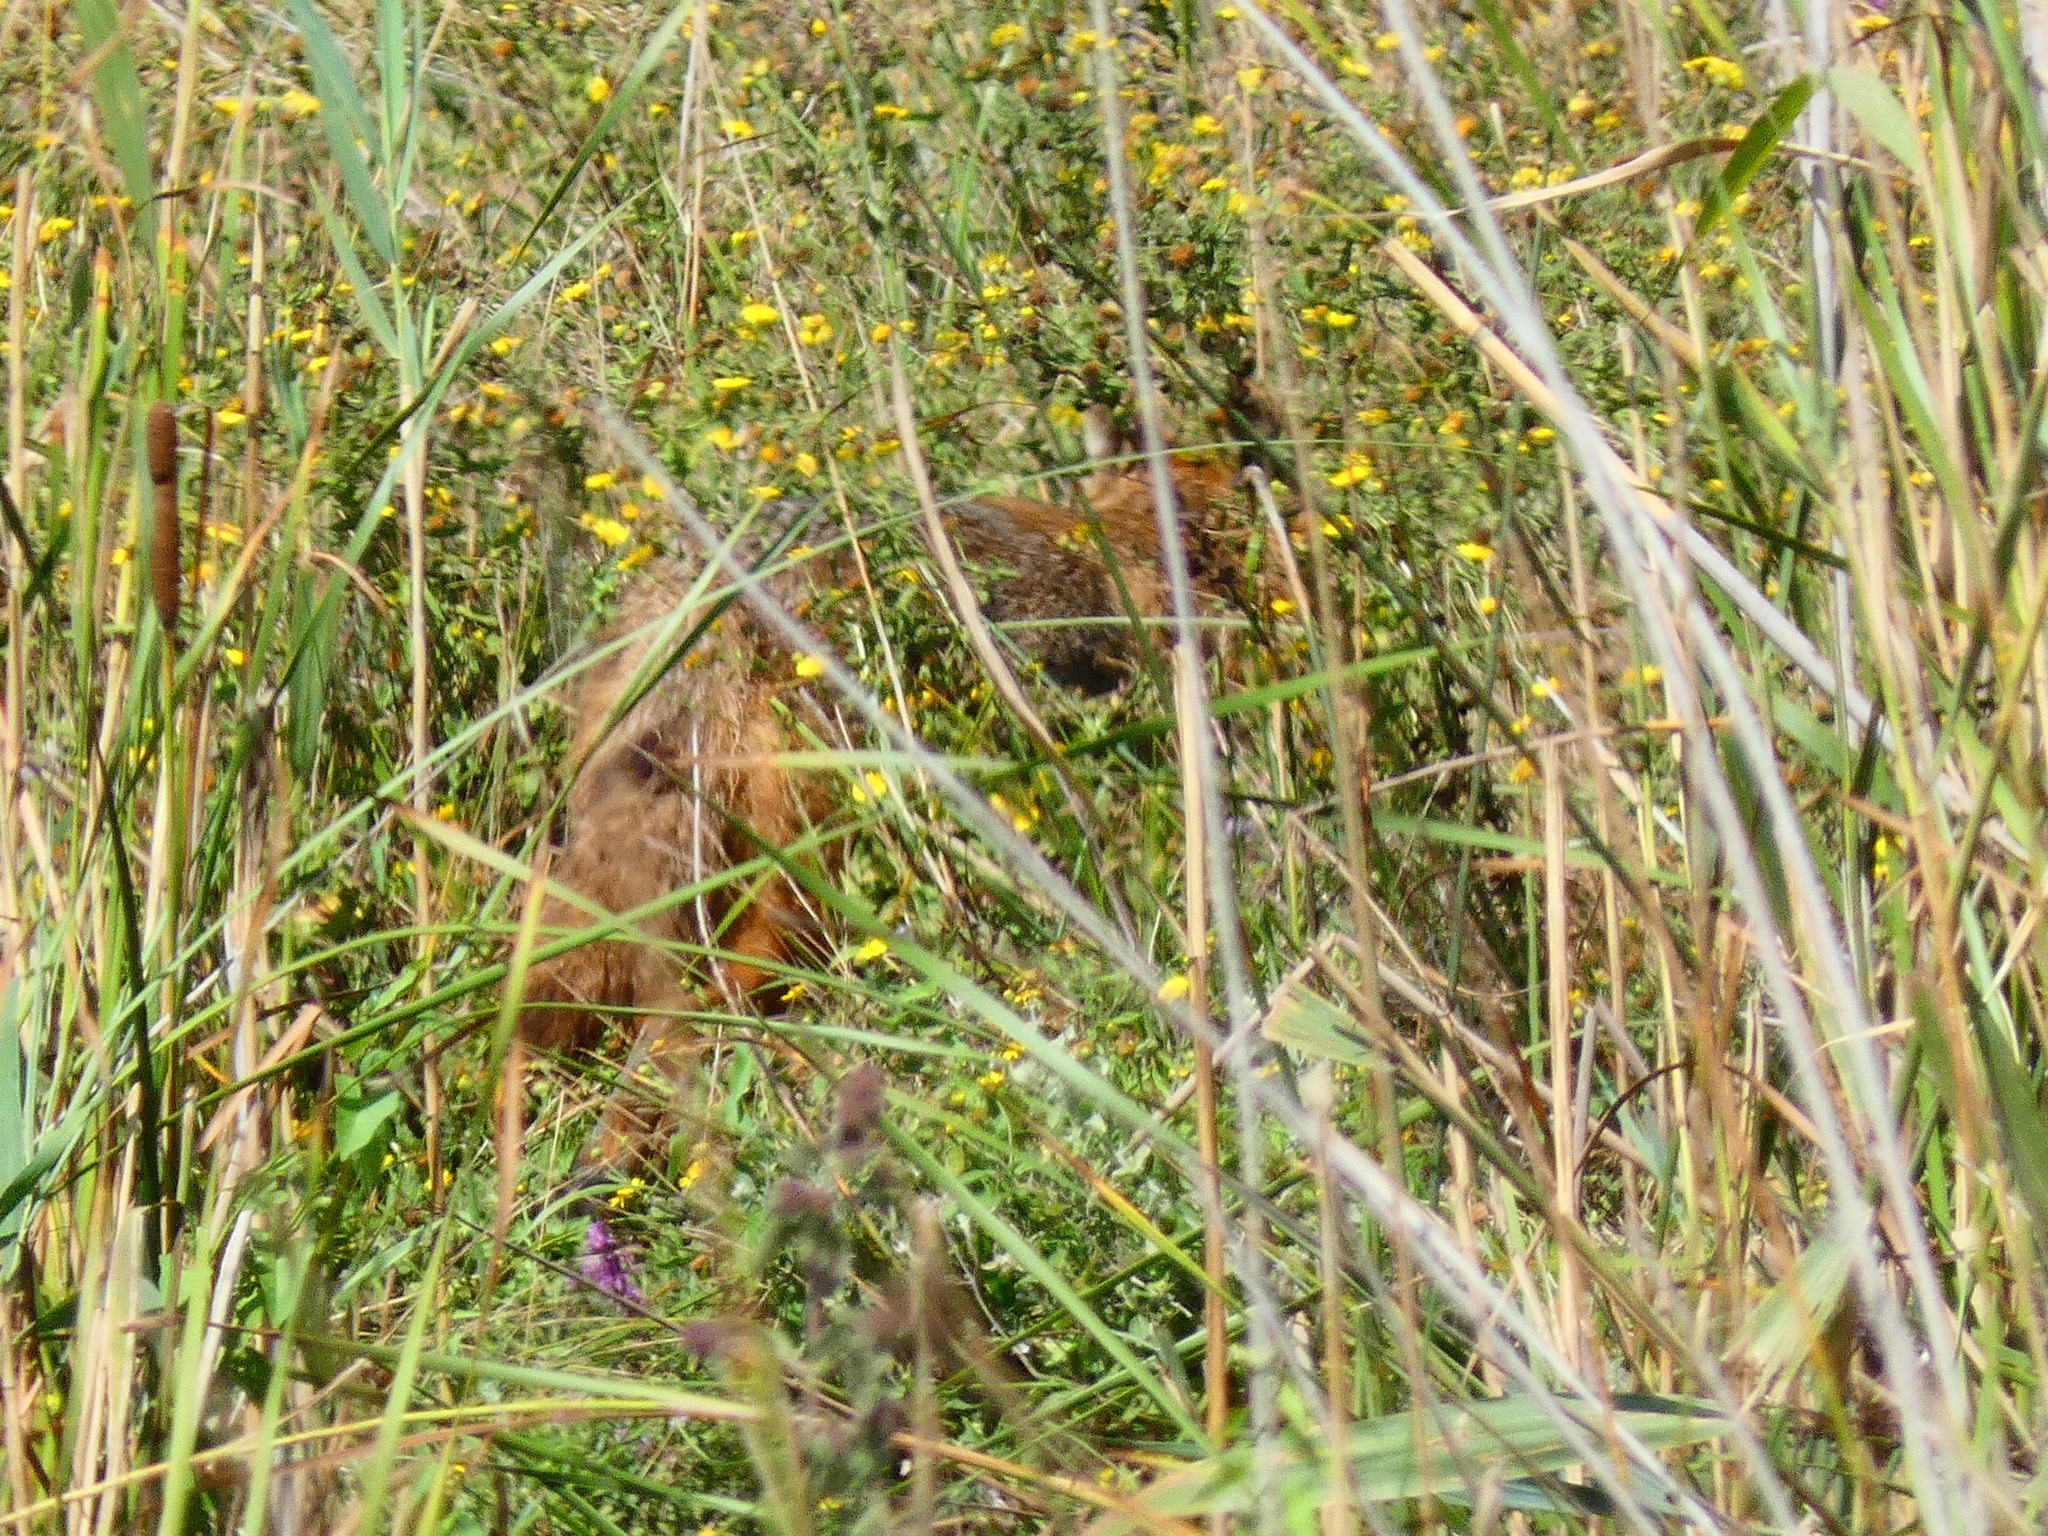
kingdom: Animalia
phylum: Chordata
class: Mammalia
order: Carnivora
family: Canidae
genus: Canis
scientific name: Canis aureus
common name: Golden jackal
